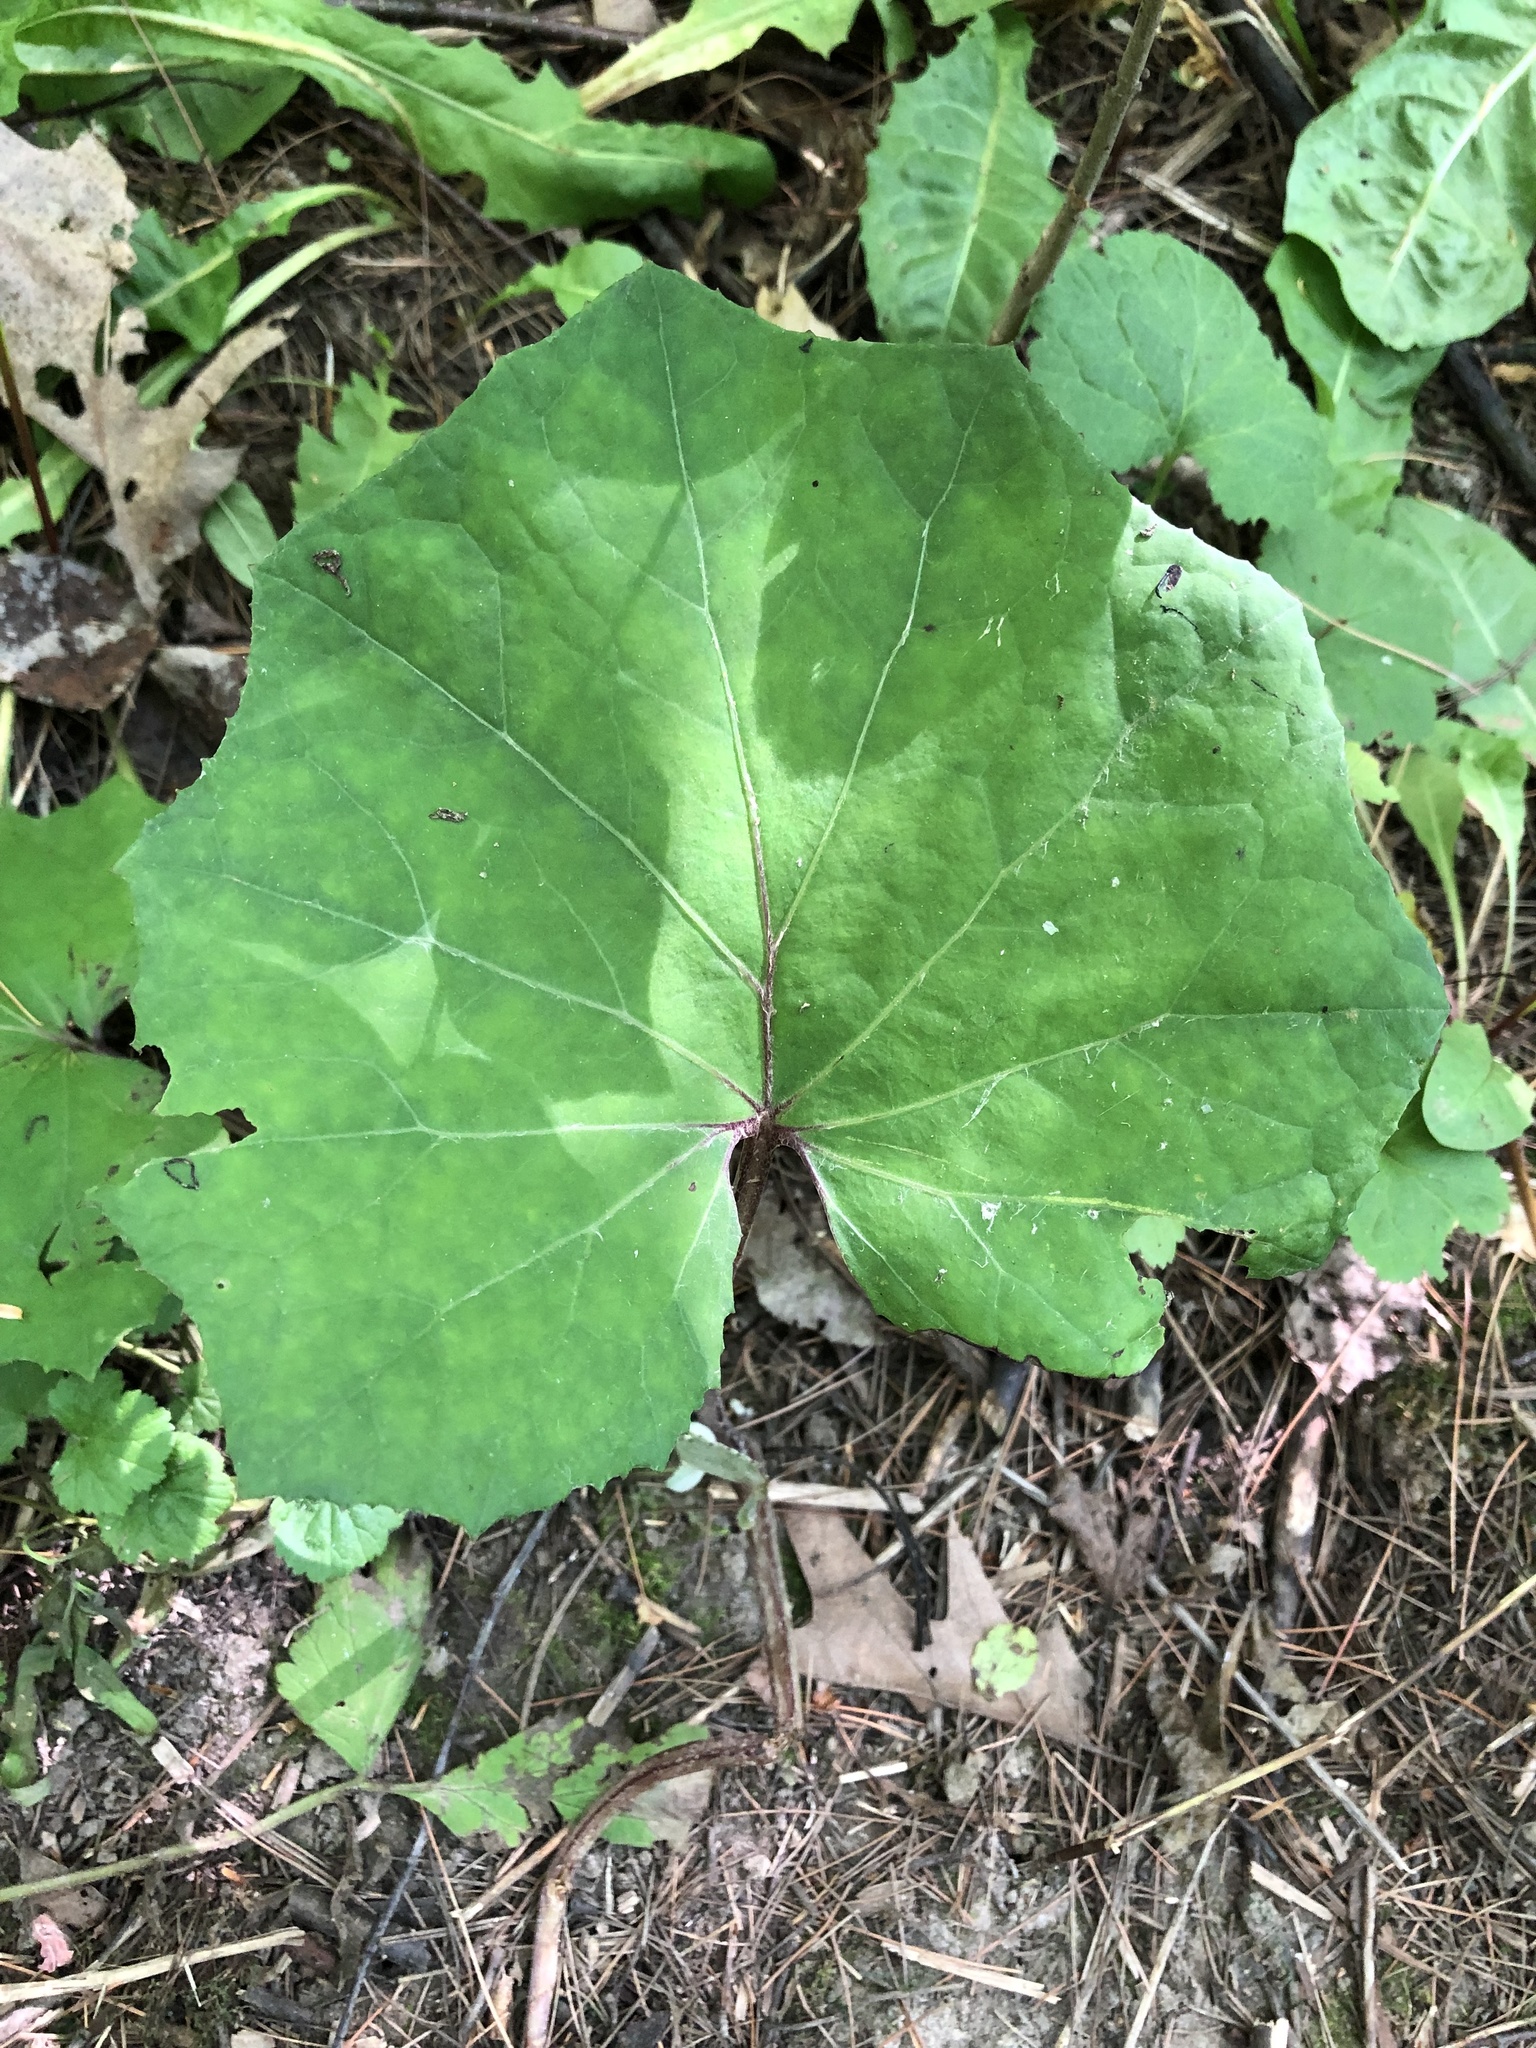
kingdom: Plantae
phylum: Tracheophyta
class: Magnoliopsida
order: Asterales
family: Asteraceae
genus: Tussilago
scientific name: Tussilago farfara
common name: Coltsfoot
